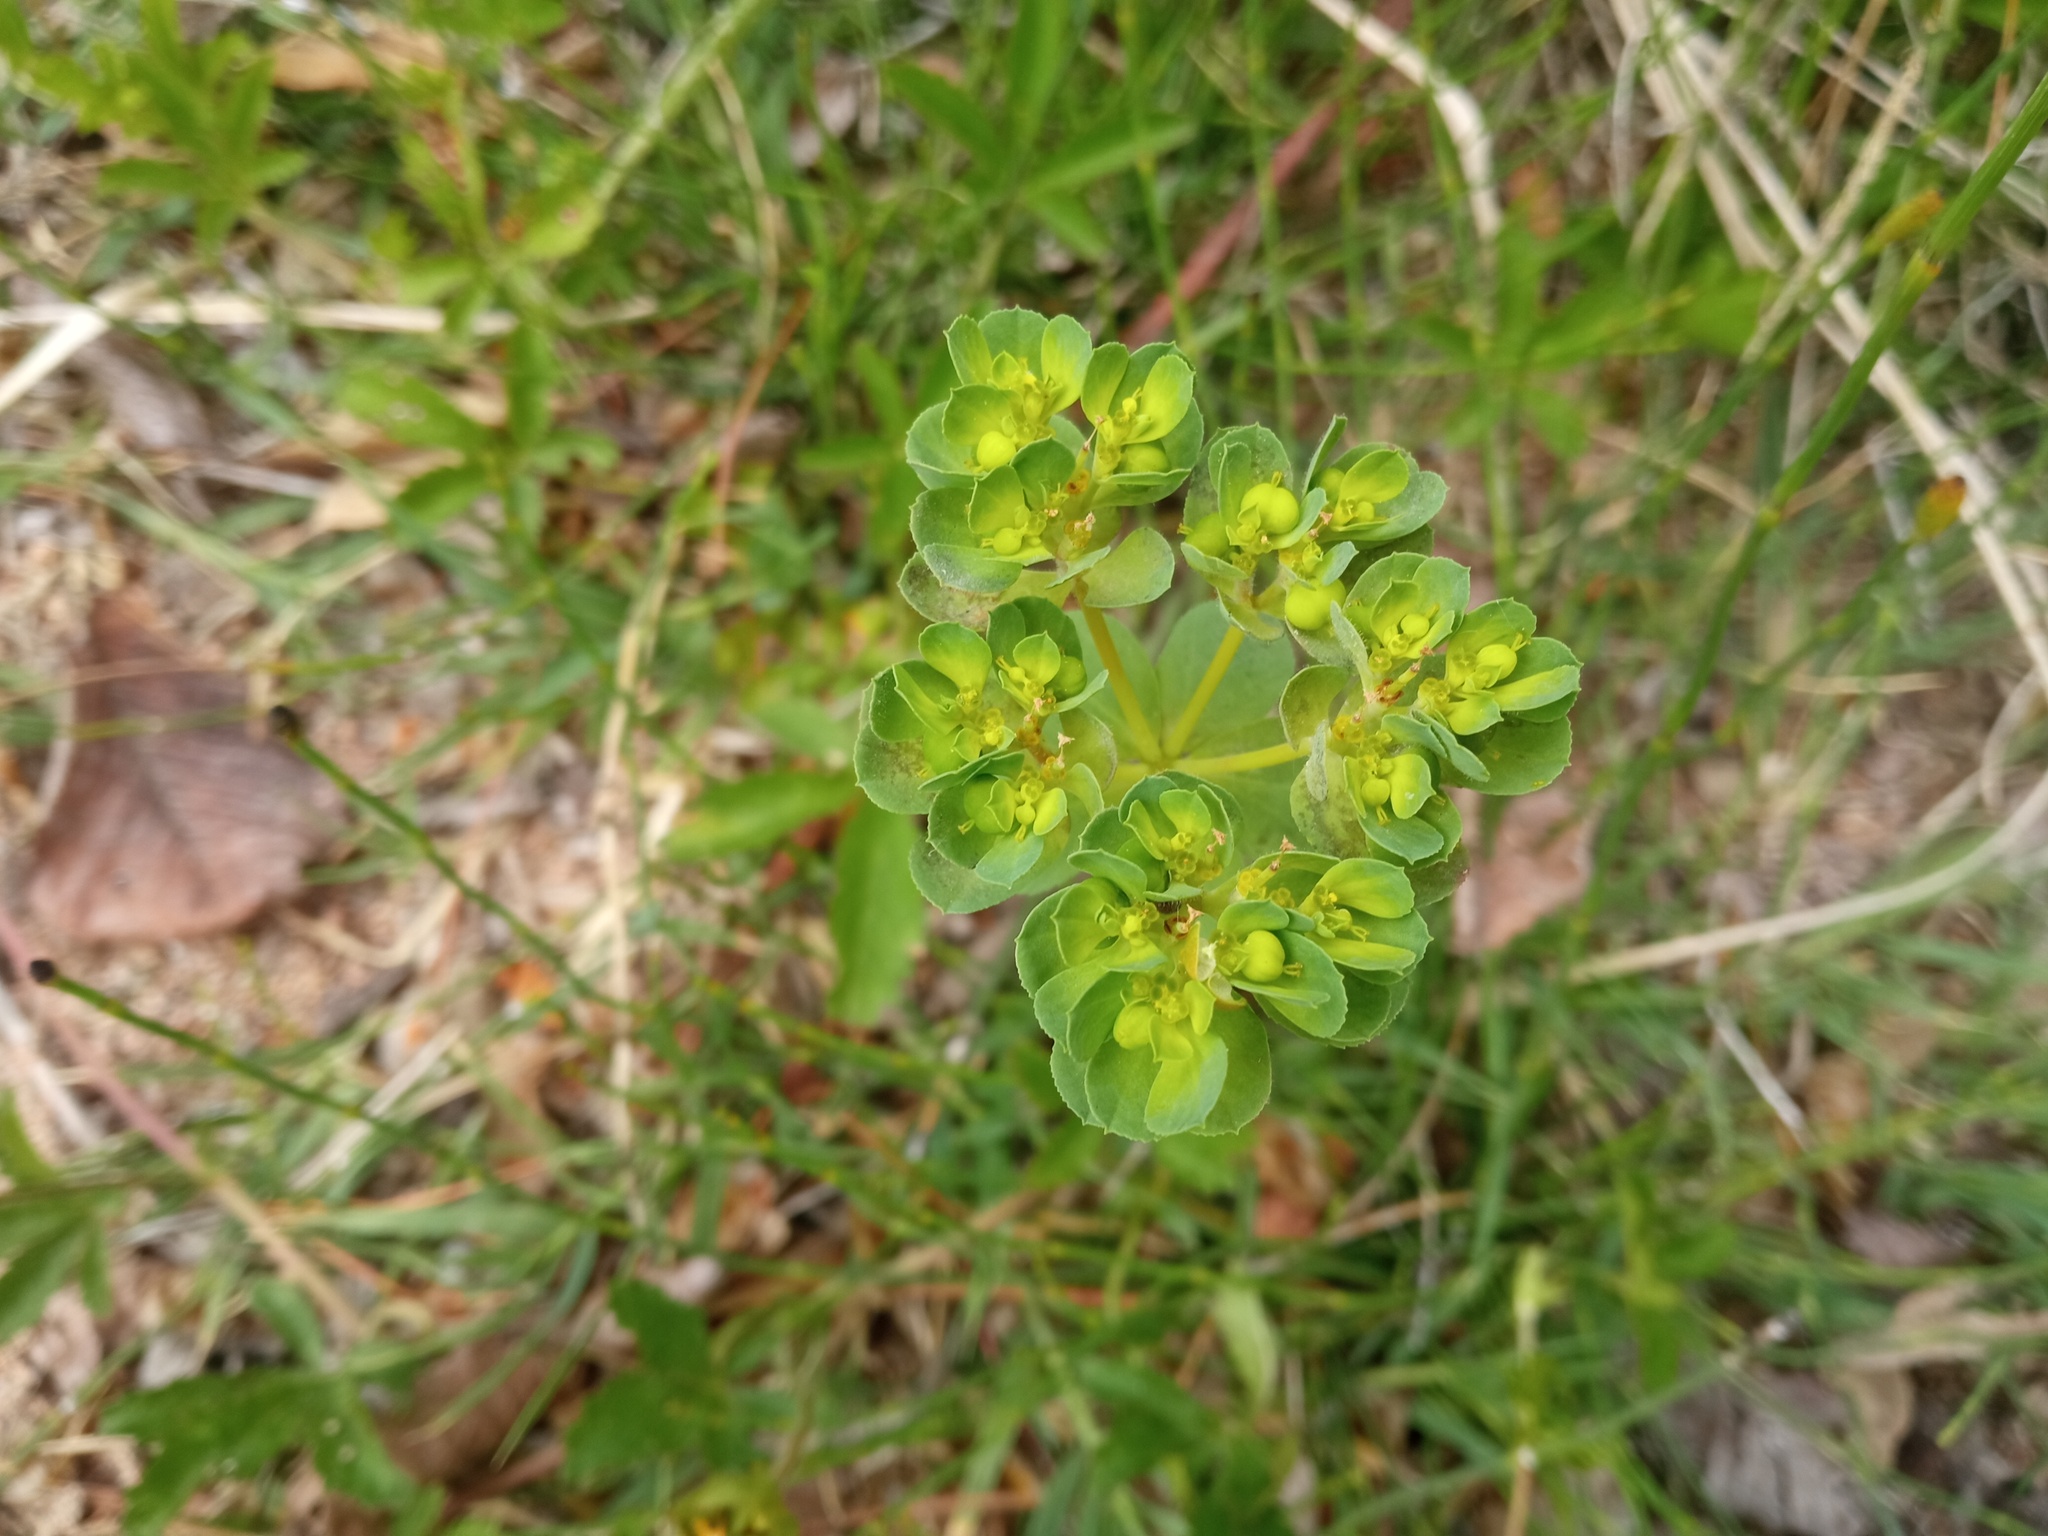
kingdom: Plantae
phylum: Tracheophyta
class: Magnoliopsida
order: Malpighiales
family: Euphorbiaceae
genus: Euphorbia
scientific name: Euphorbia helioscopia
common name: Sun spurge
